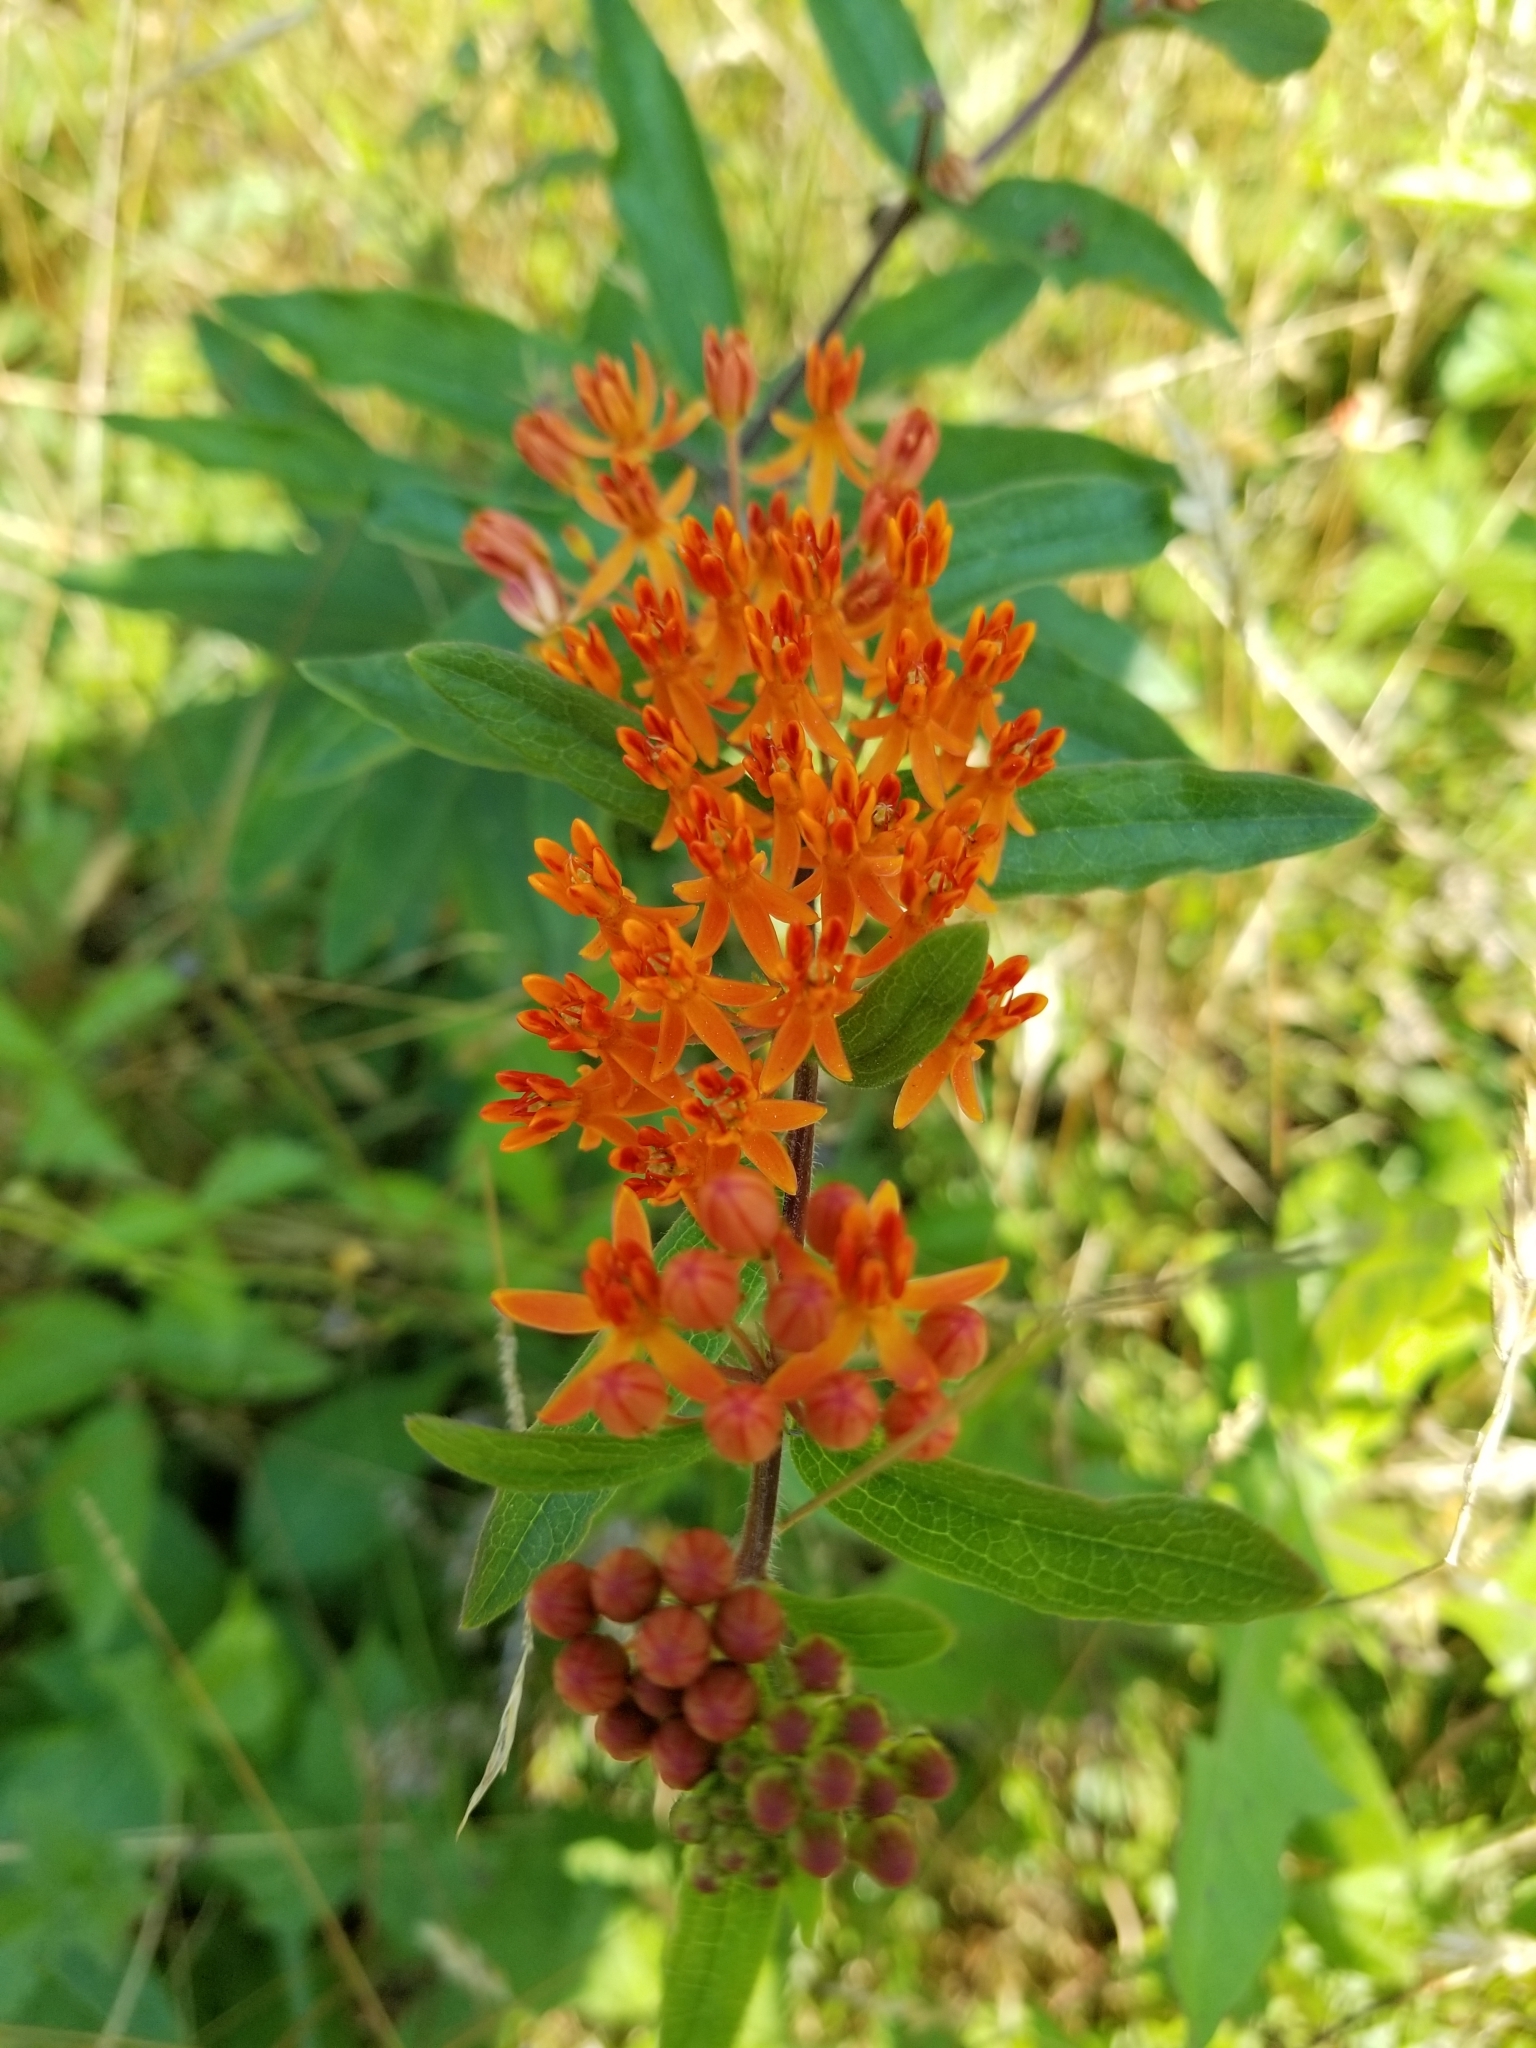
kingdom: Plantae
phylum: Tracheophyta
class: Magnoliopsida
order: Gentianales
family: Apocynaceae
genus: Asclepias
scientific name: Asclepias tuberosa
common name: Butterfly milkweed
